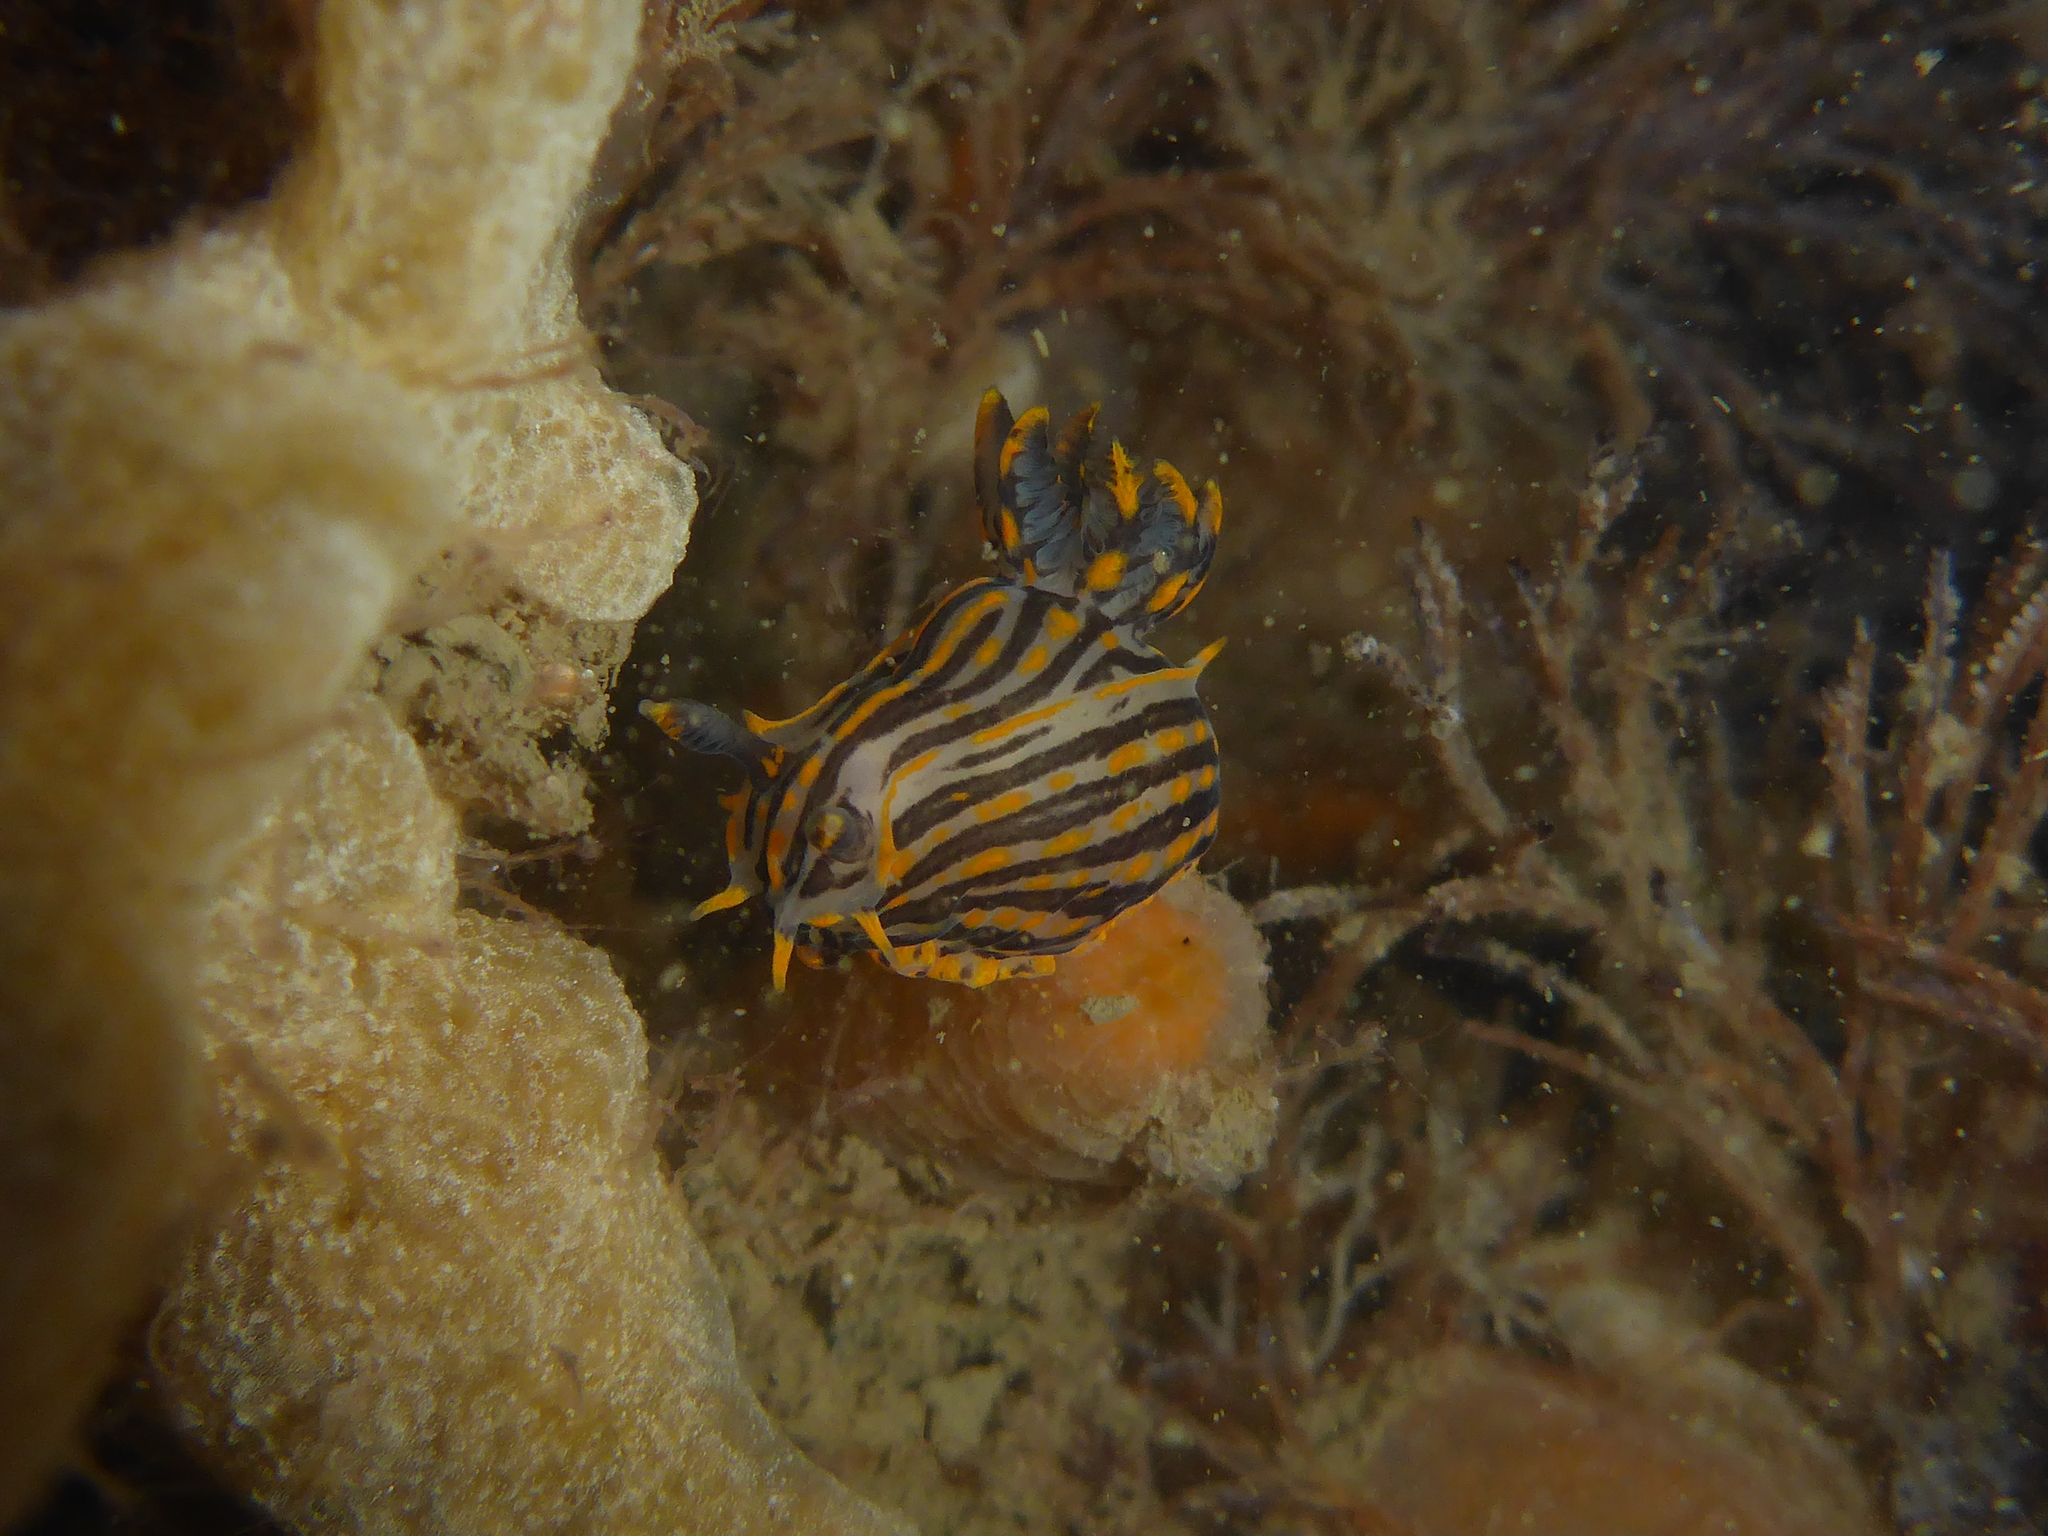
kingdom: Animalia
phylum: Mollusca
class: Gastropoda
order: Nudibranchia
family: Polyceridae
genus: Polycera
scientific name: Polycera atra
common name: Orange-spike polycera
